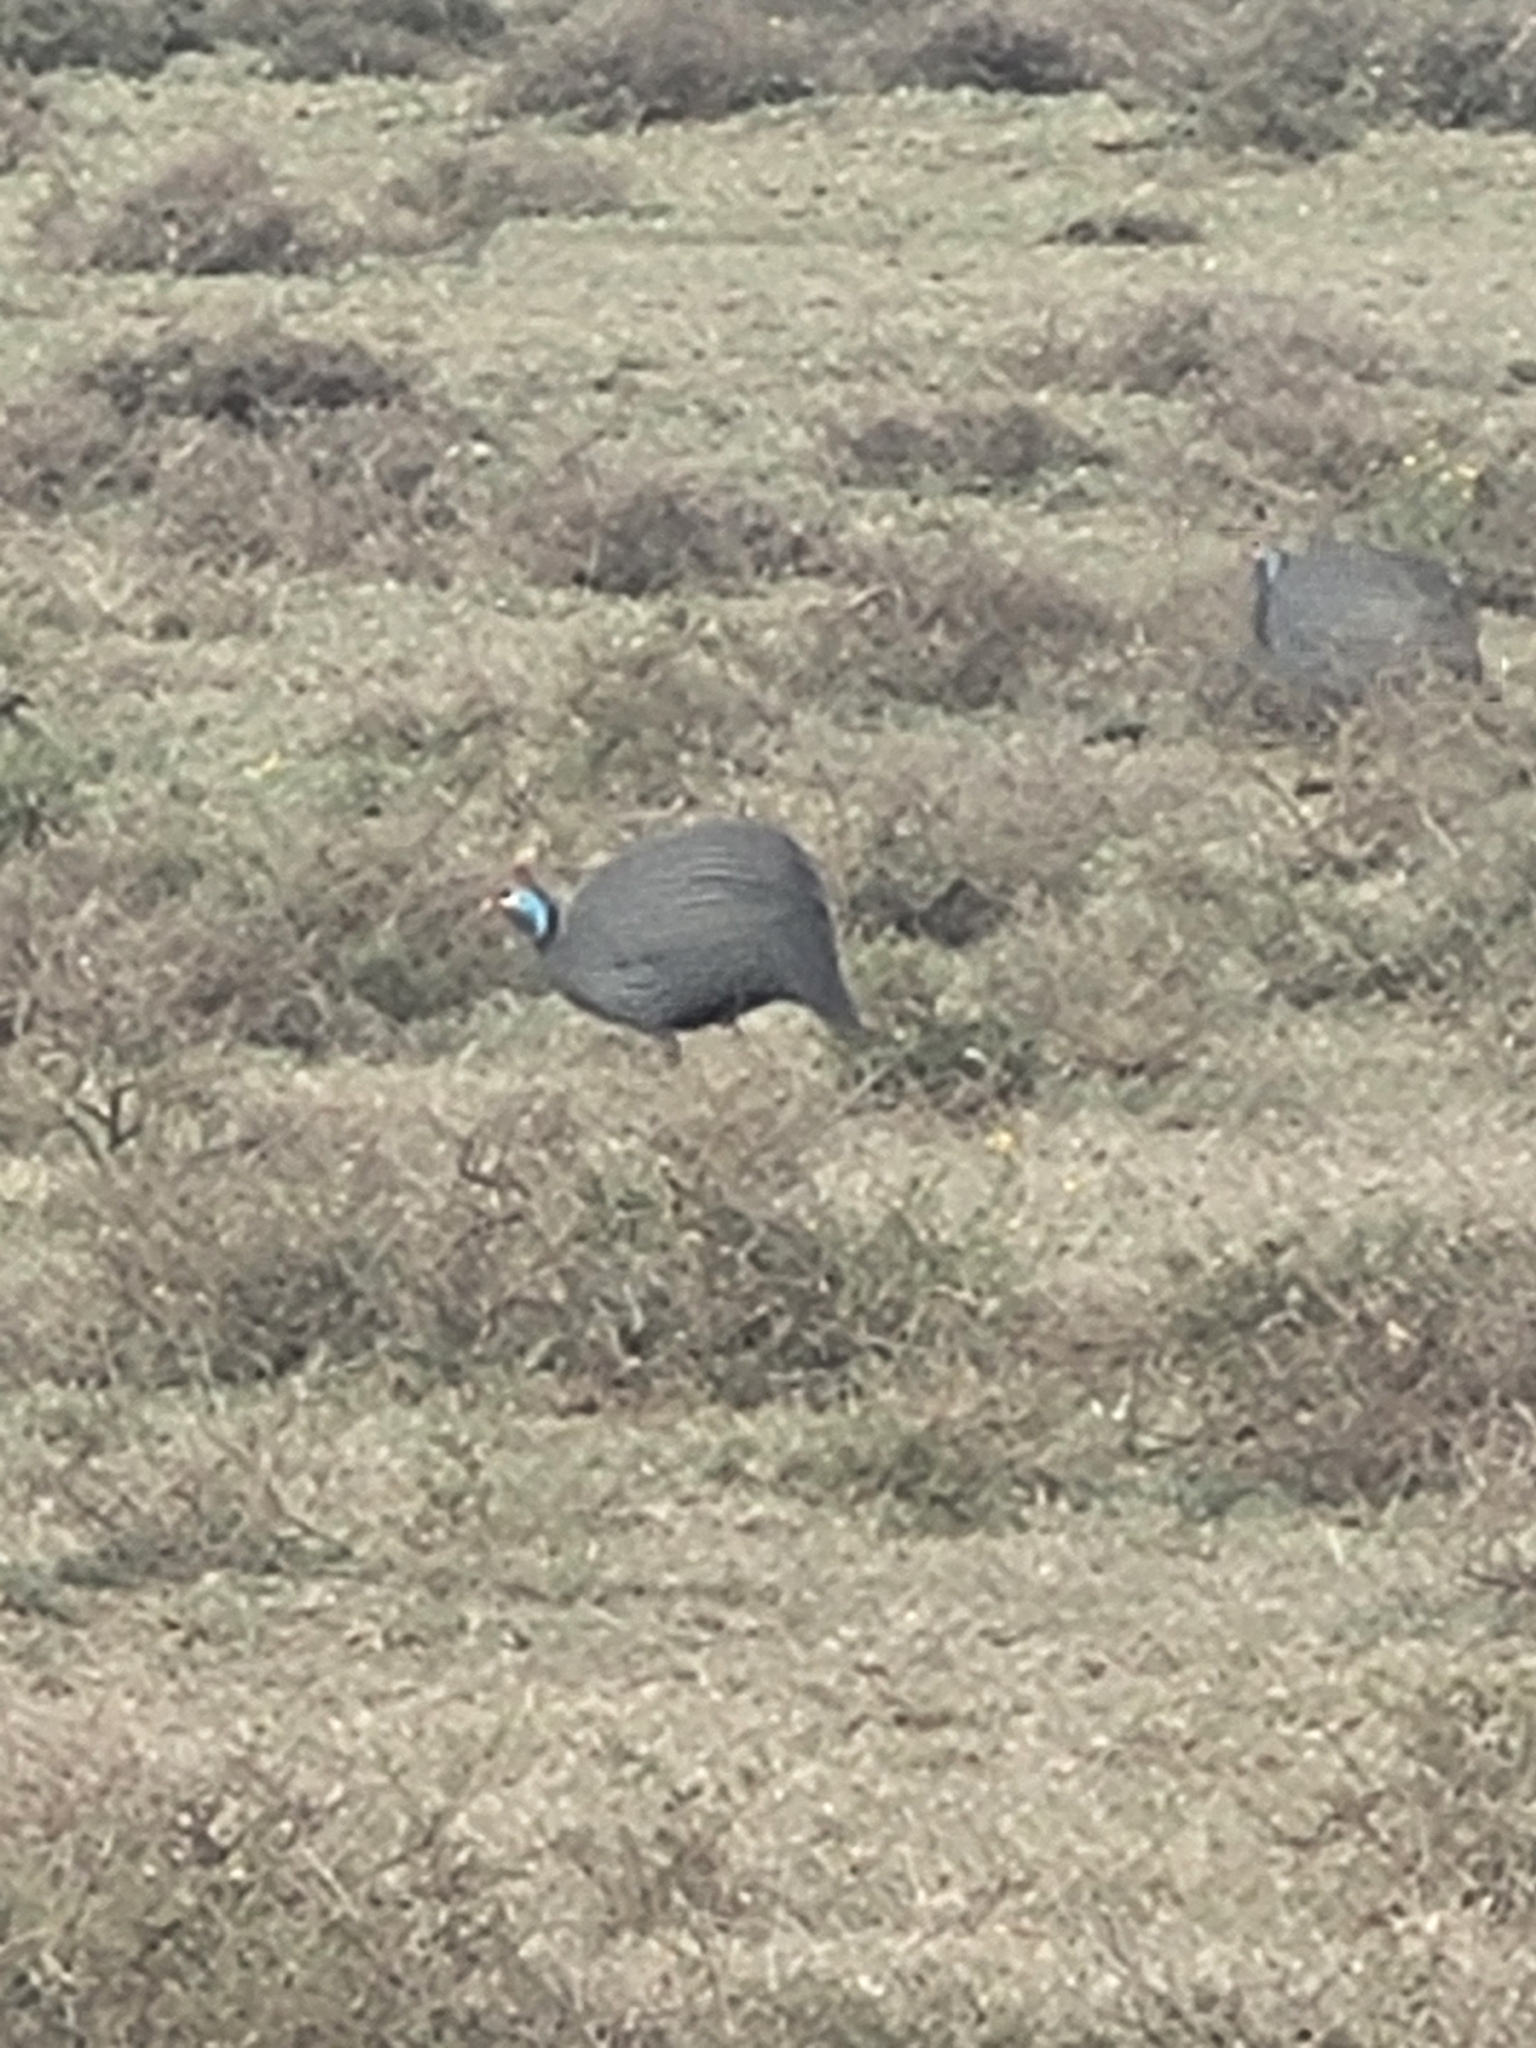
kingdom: Animalia
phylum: Chordata
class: Aves
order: Galliformes
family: Numididae
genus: Numida
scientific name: Numida meleagris
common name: Helmeted guineafowl
